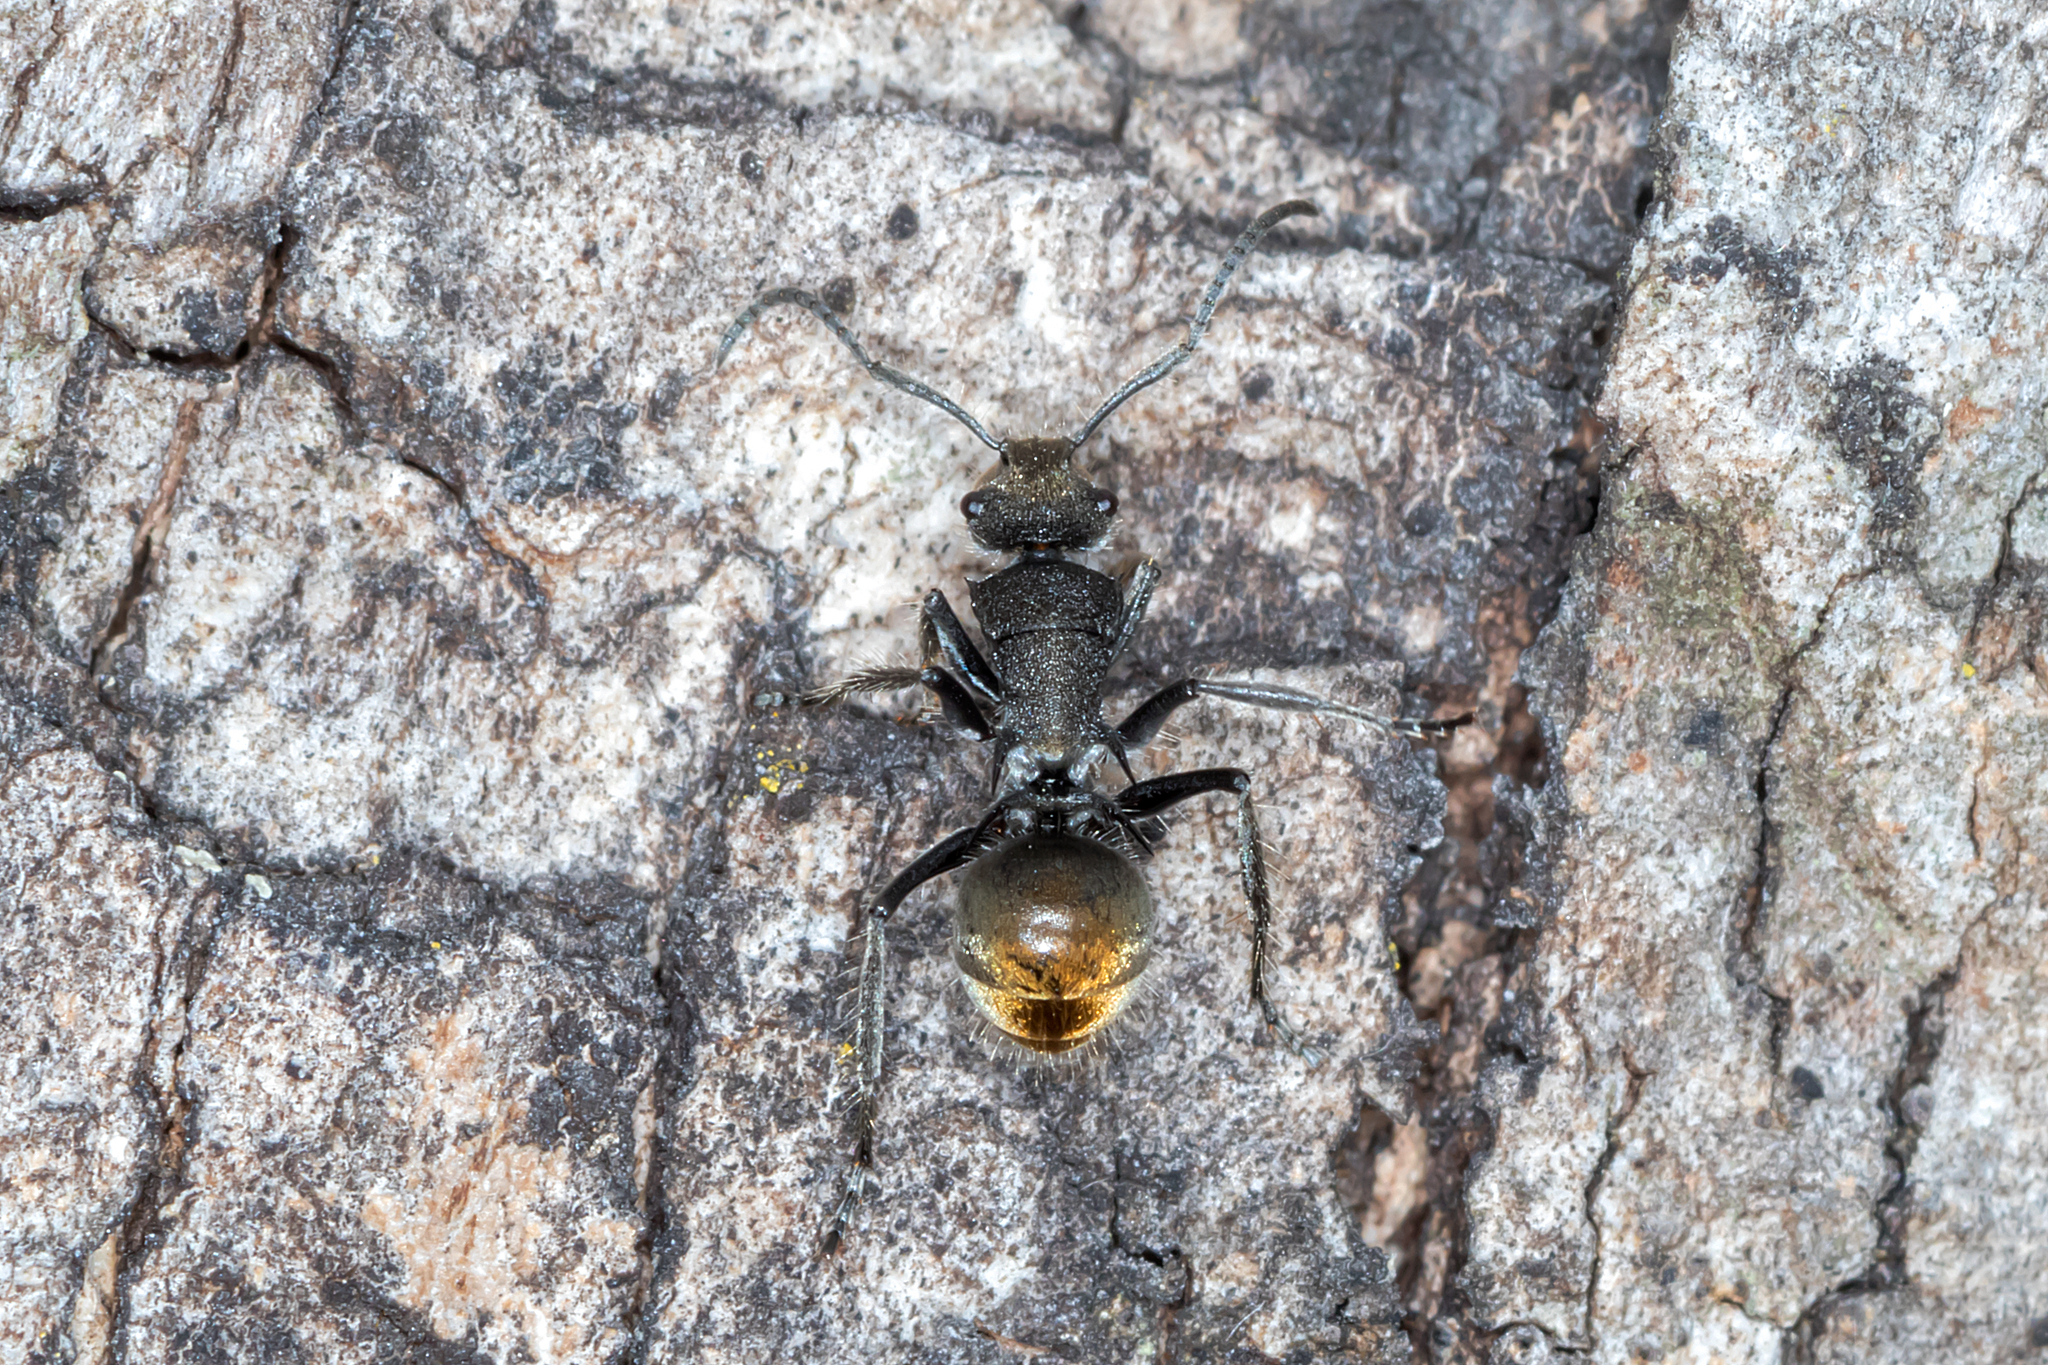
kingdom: Animalia
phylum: Arthropoda
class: Insecta
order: Hymenoptera
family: Formicidae
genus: Polyrhachis
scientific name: Polyrhachis vermiculosa
